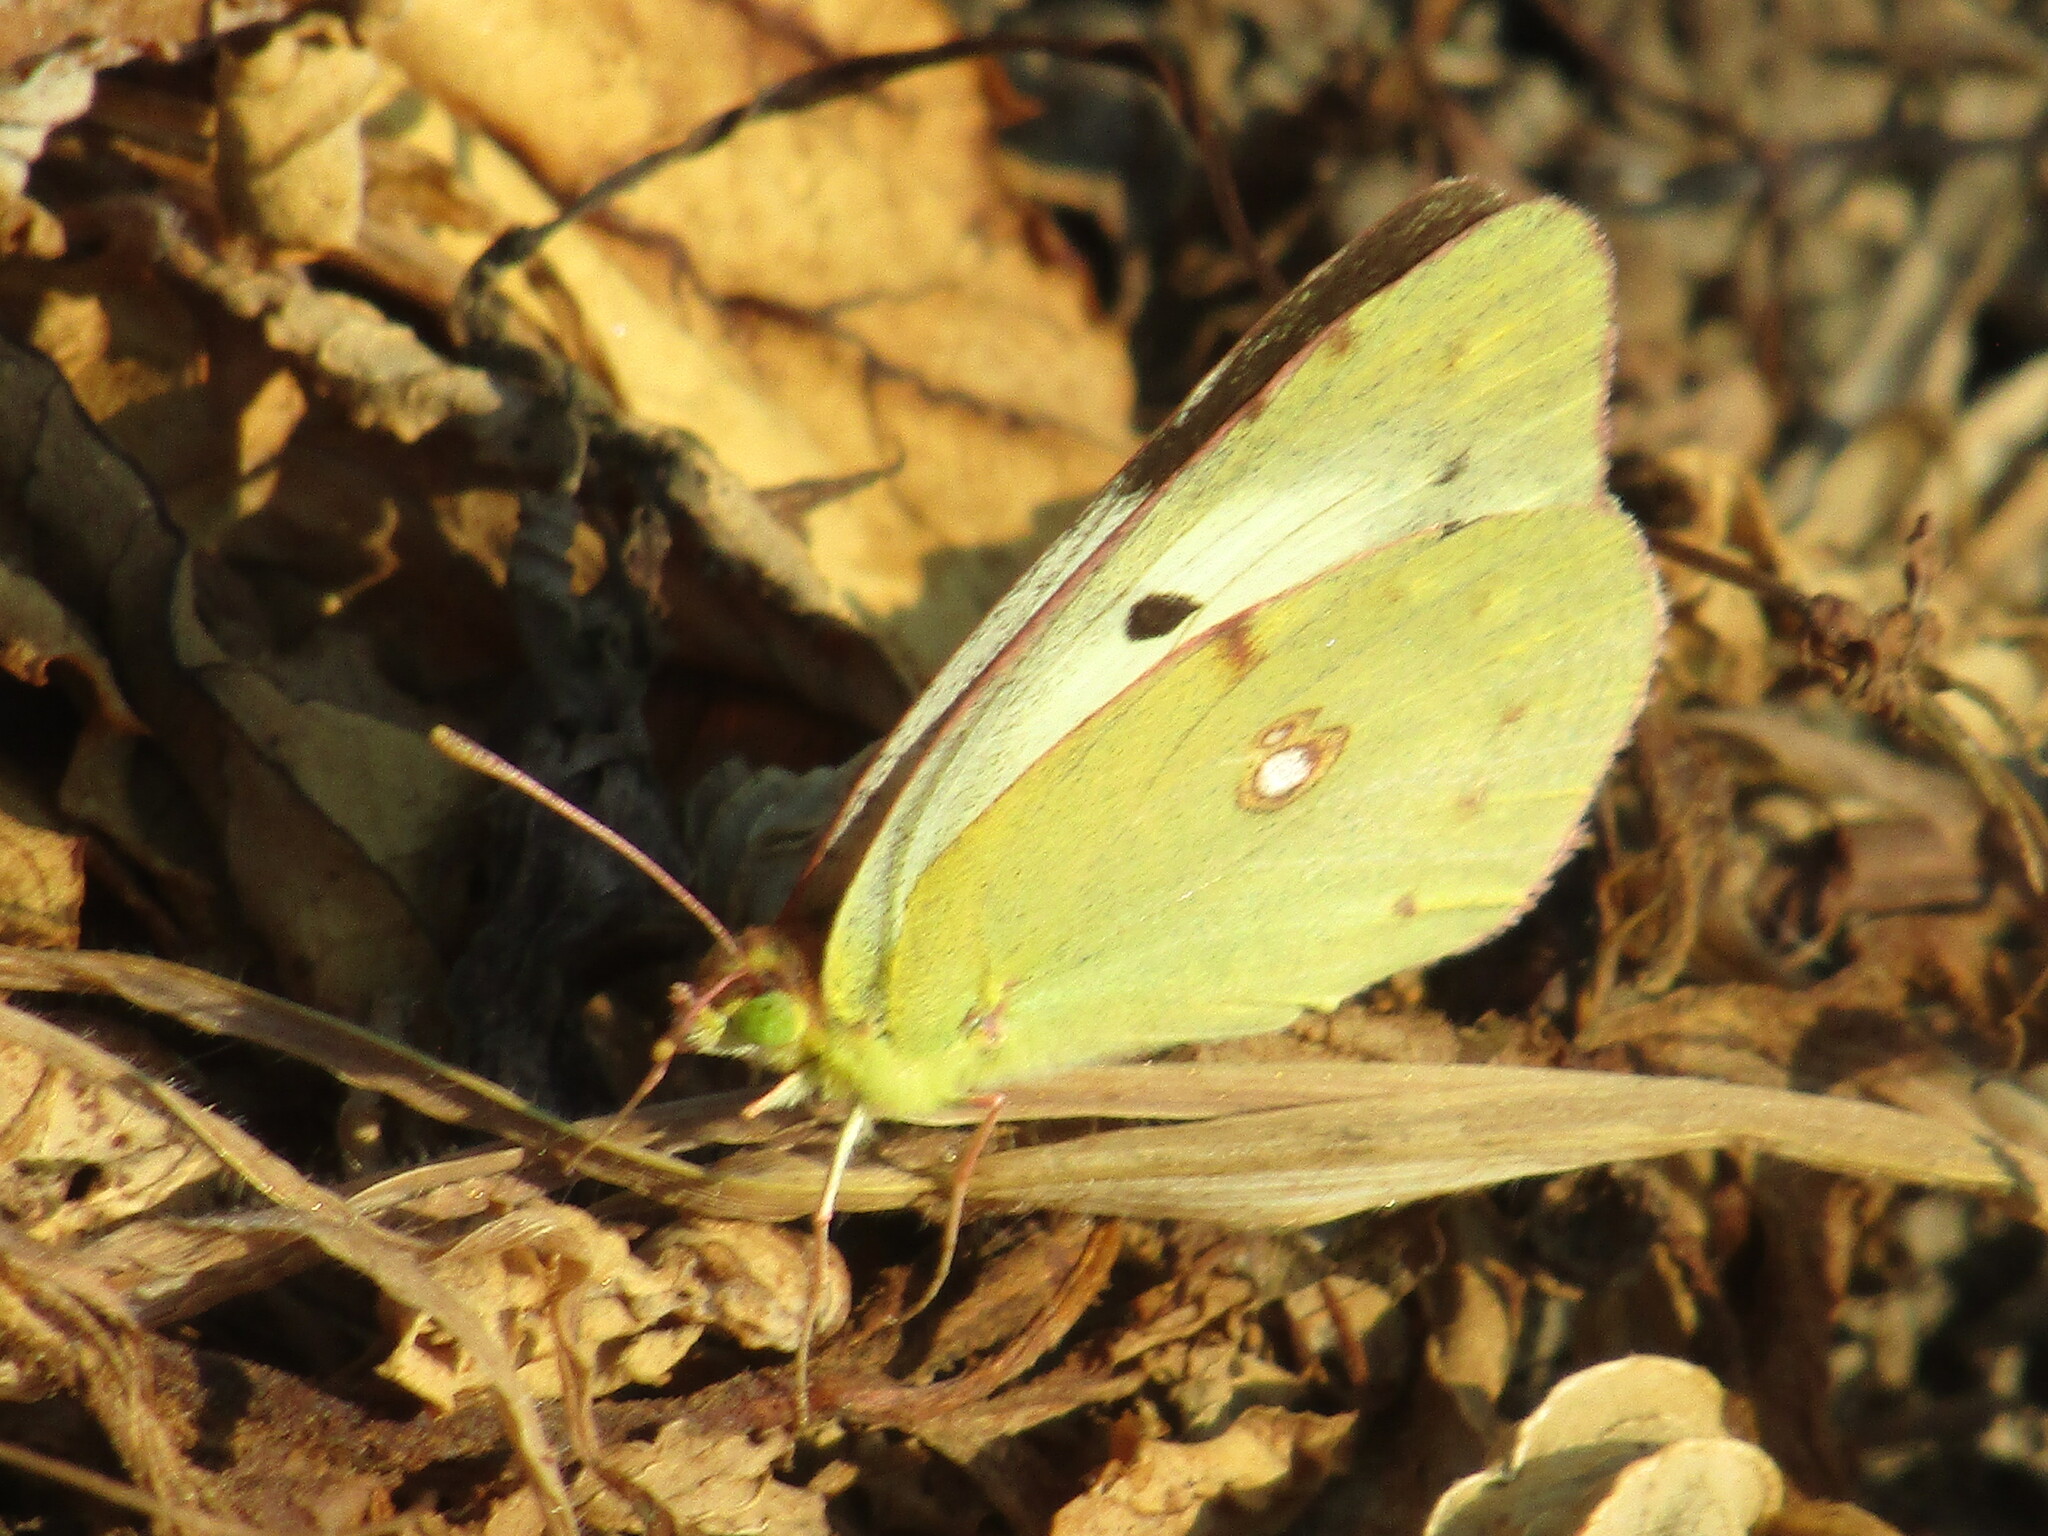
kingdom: Animalia
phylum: Arthropoda
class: Insecta
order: Lepidoptera
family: Pieridae
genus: Colias
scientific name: Colias
